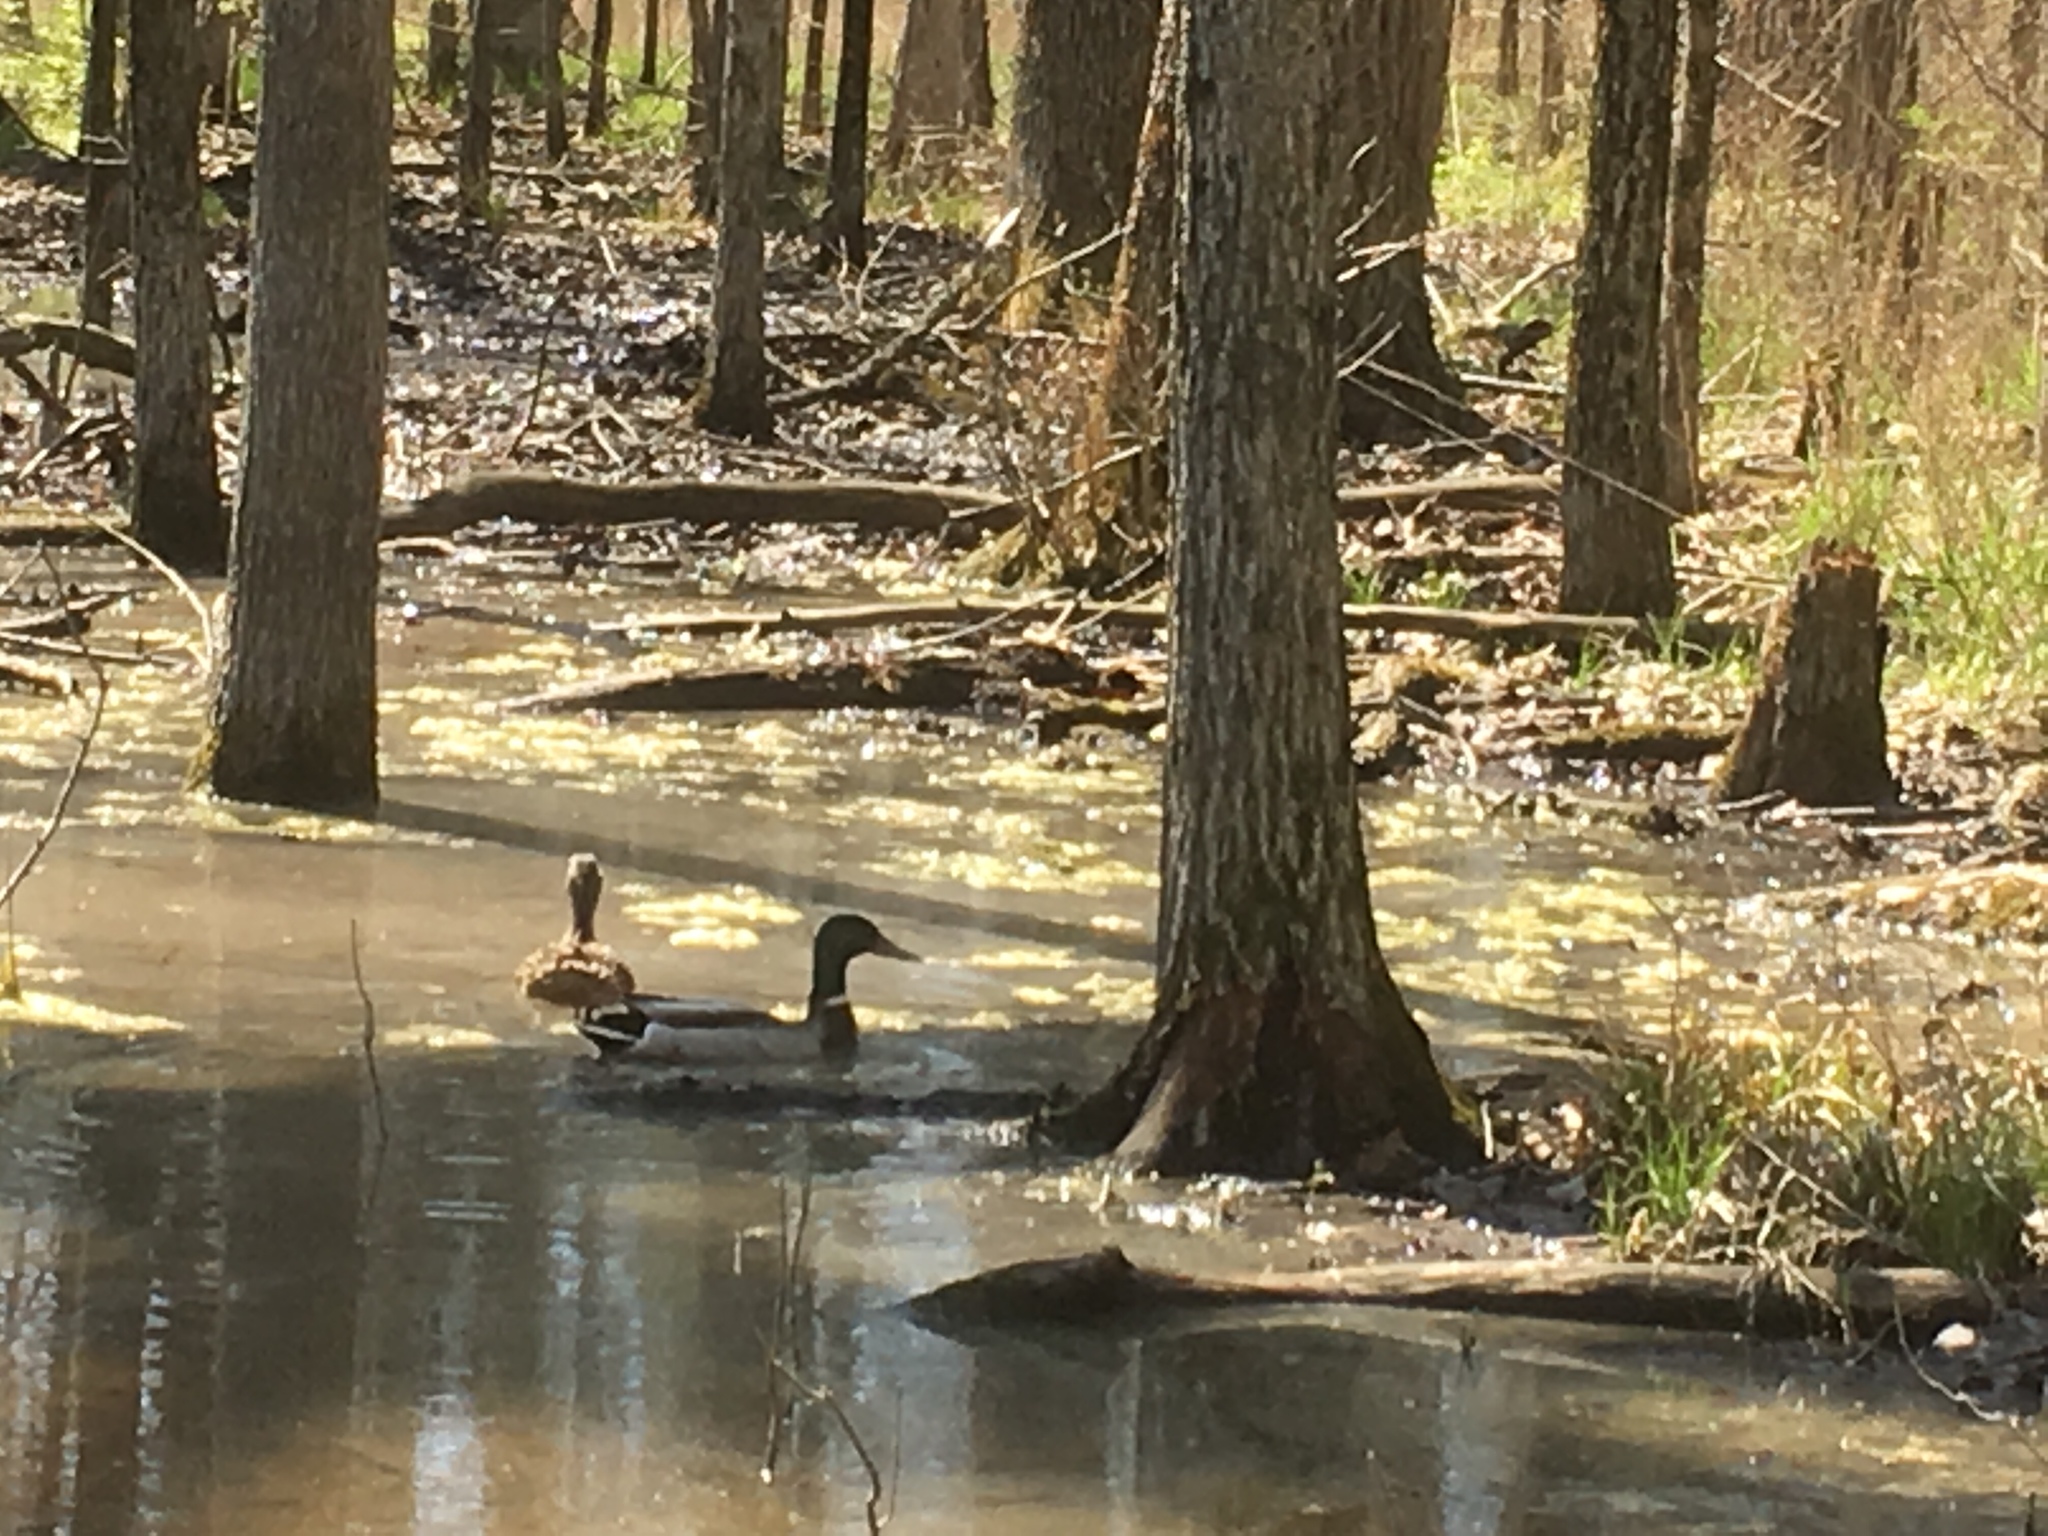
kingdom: Animalia
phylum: Chordata
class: Aves
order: Anseriformes
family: Anatidae
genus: Anas
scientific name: Anas platyrhynchos
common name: Mallard
